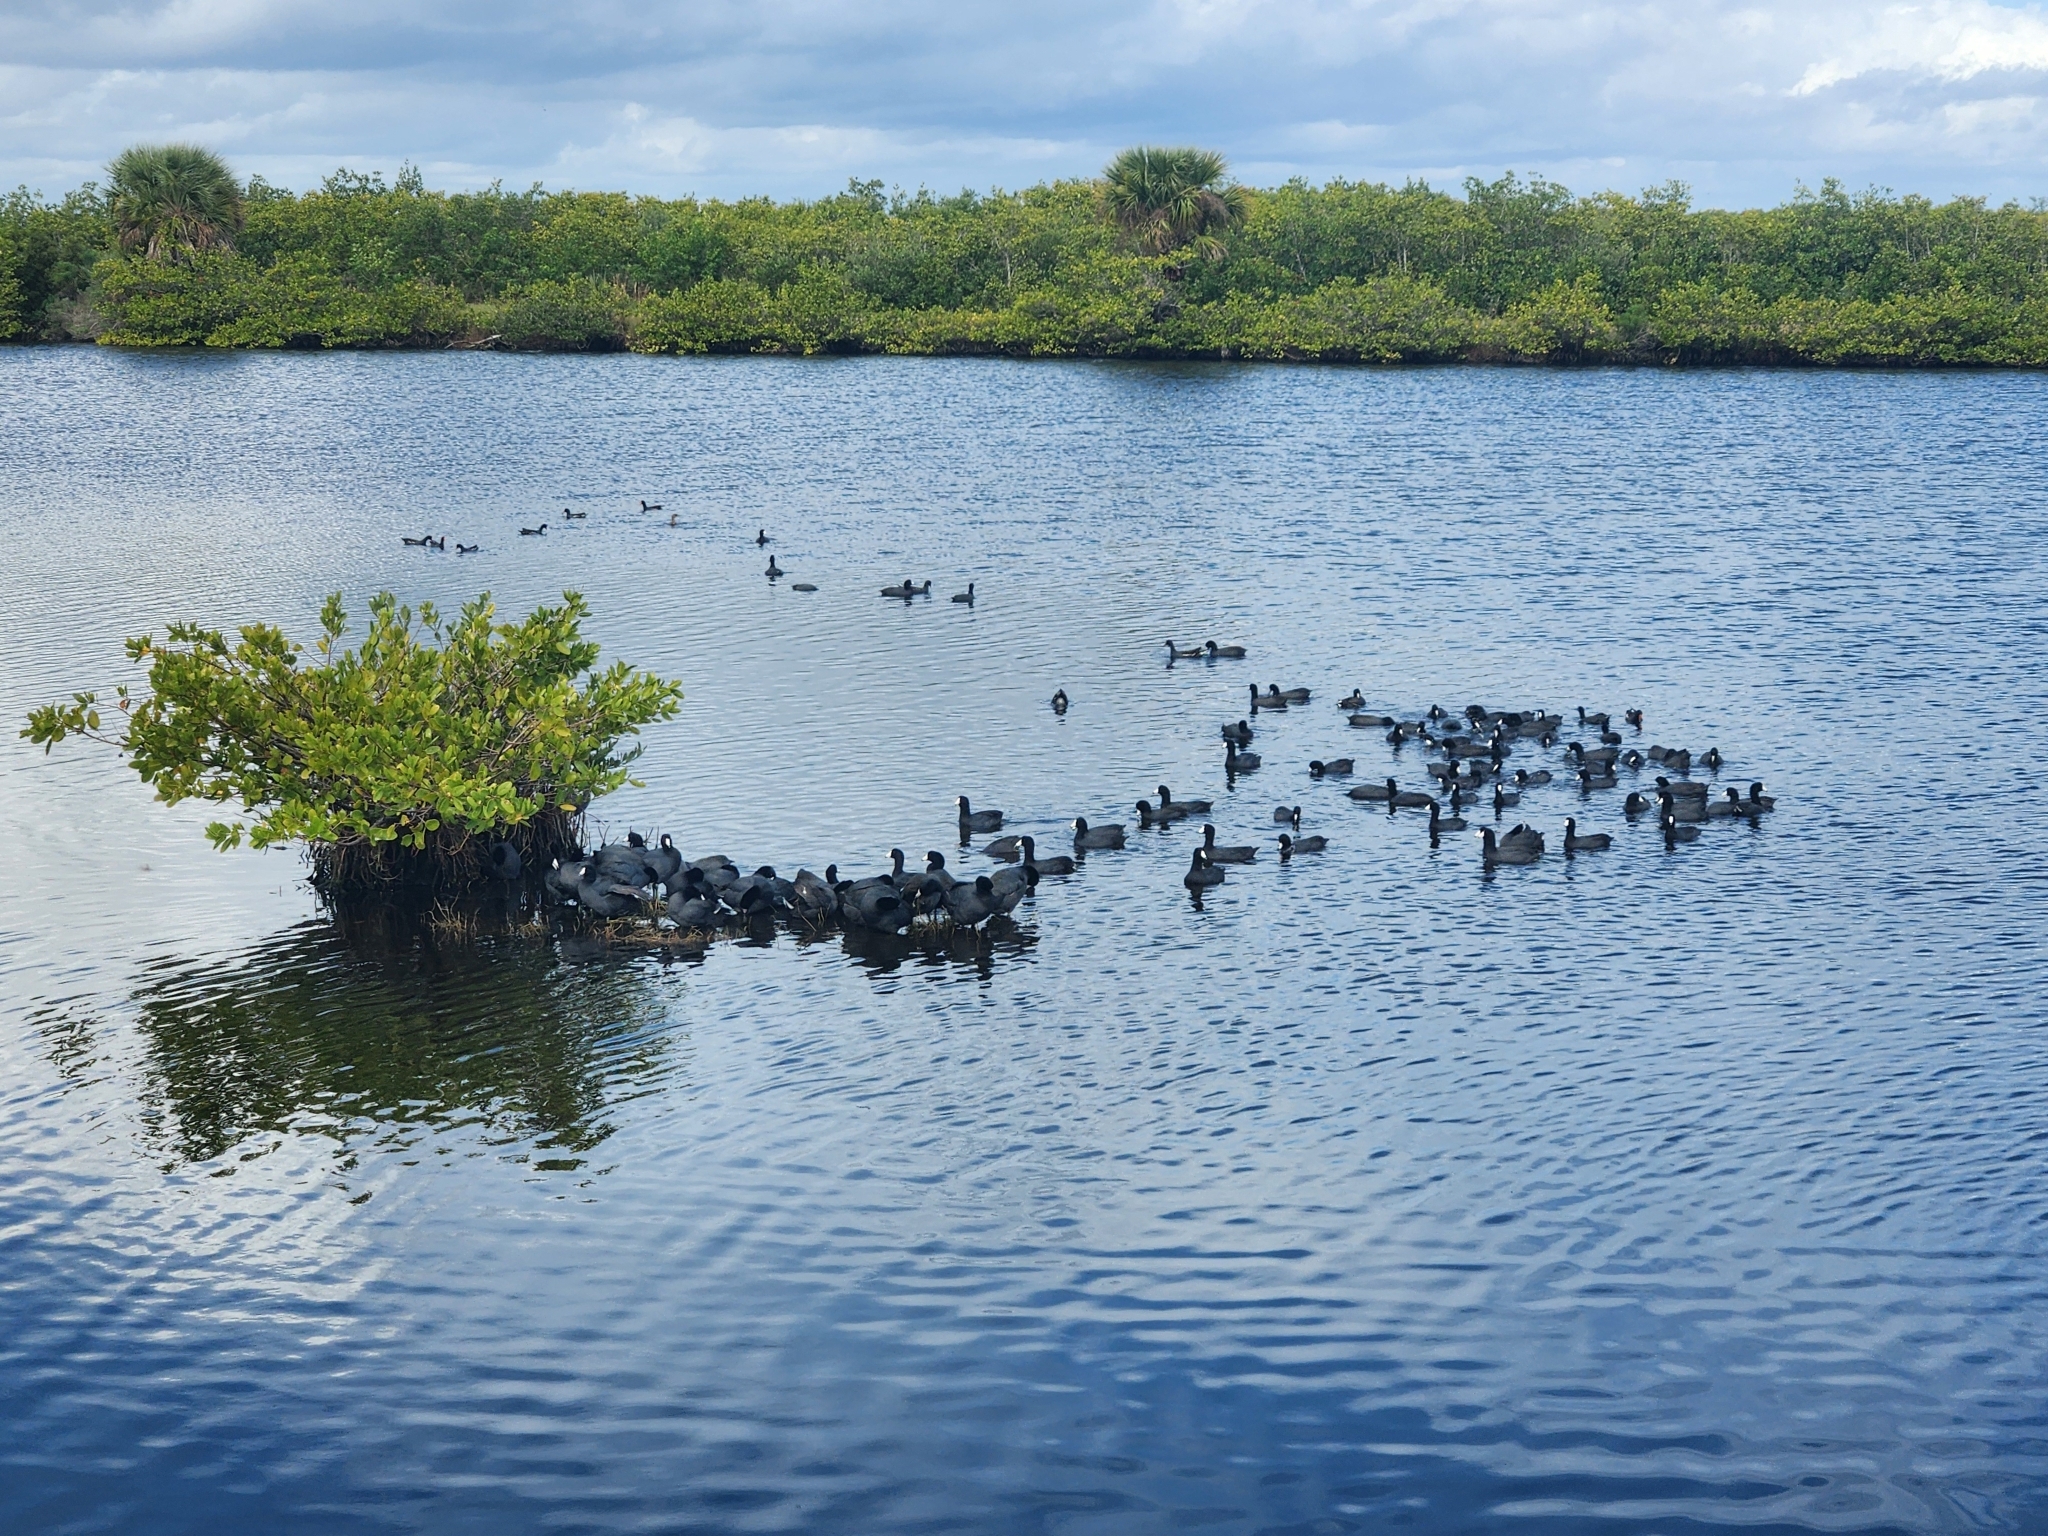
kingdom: Animalia
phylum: Chordata
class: Aves
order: Gruiformes
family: Rallidae
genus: Fulica
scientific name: Fulica americana
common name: American coot
